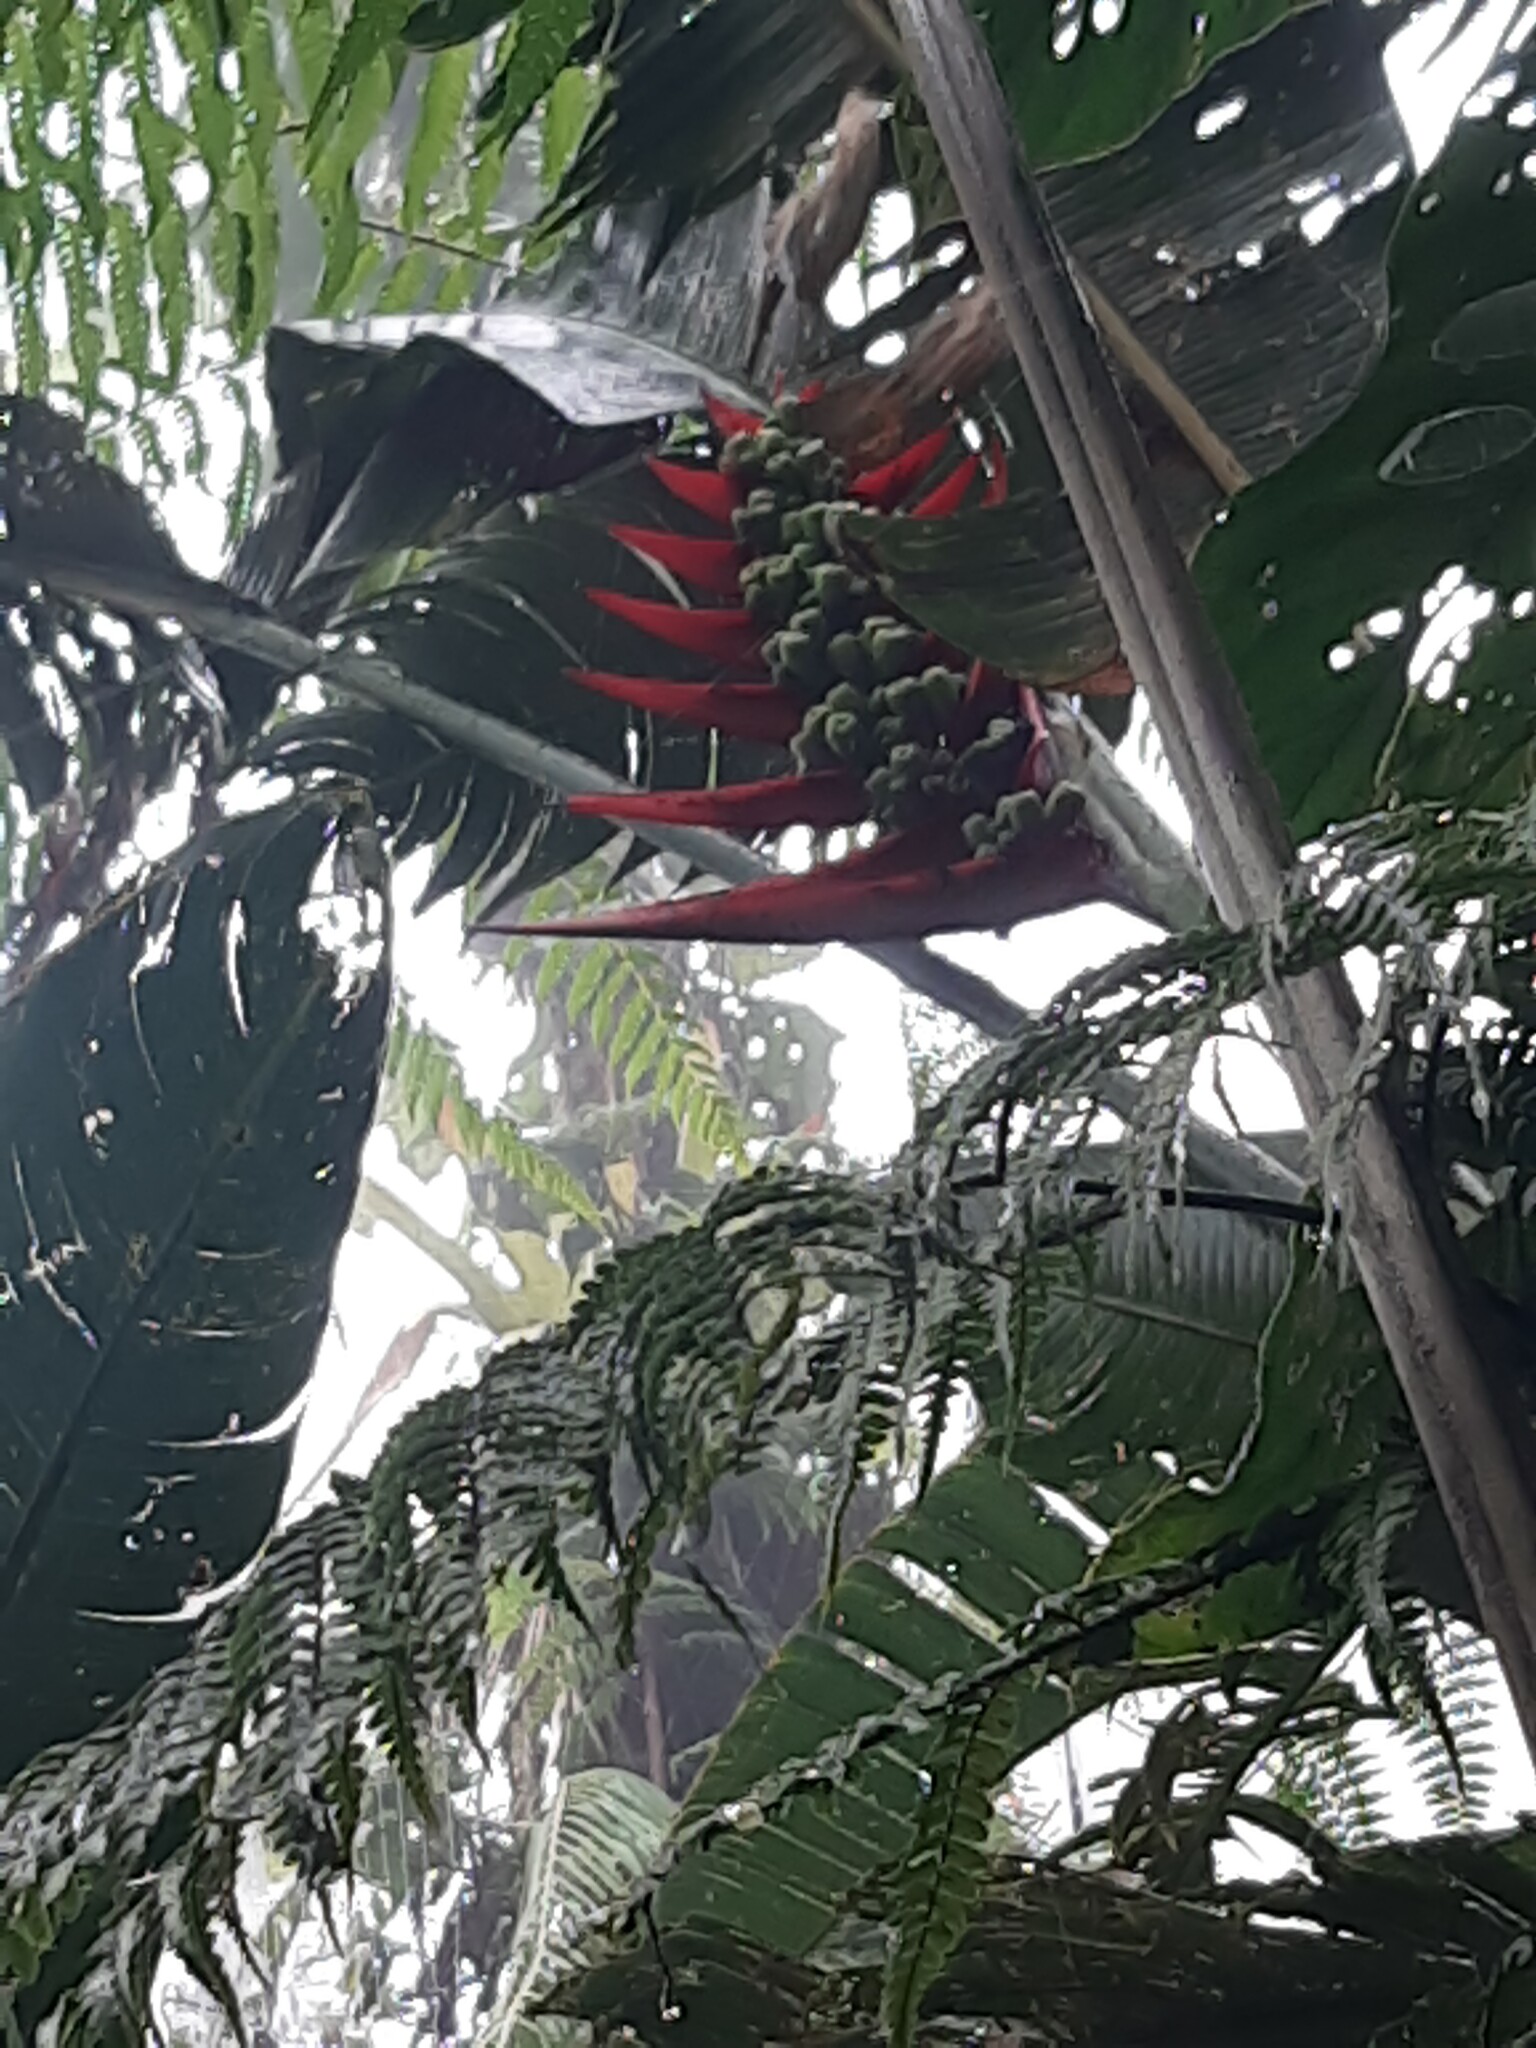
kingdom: Plantae
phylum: Tracheophyta
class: Liliopsida
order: Zingiberales
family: Heliconiaceae
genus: Heliconia
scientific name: Heliconia adflexa
